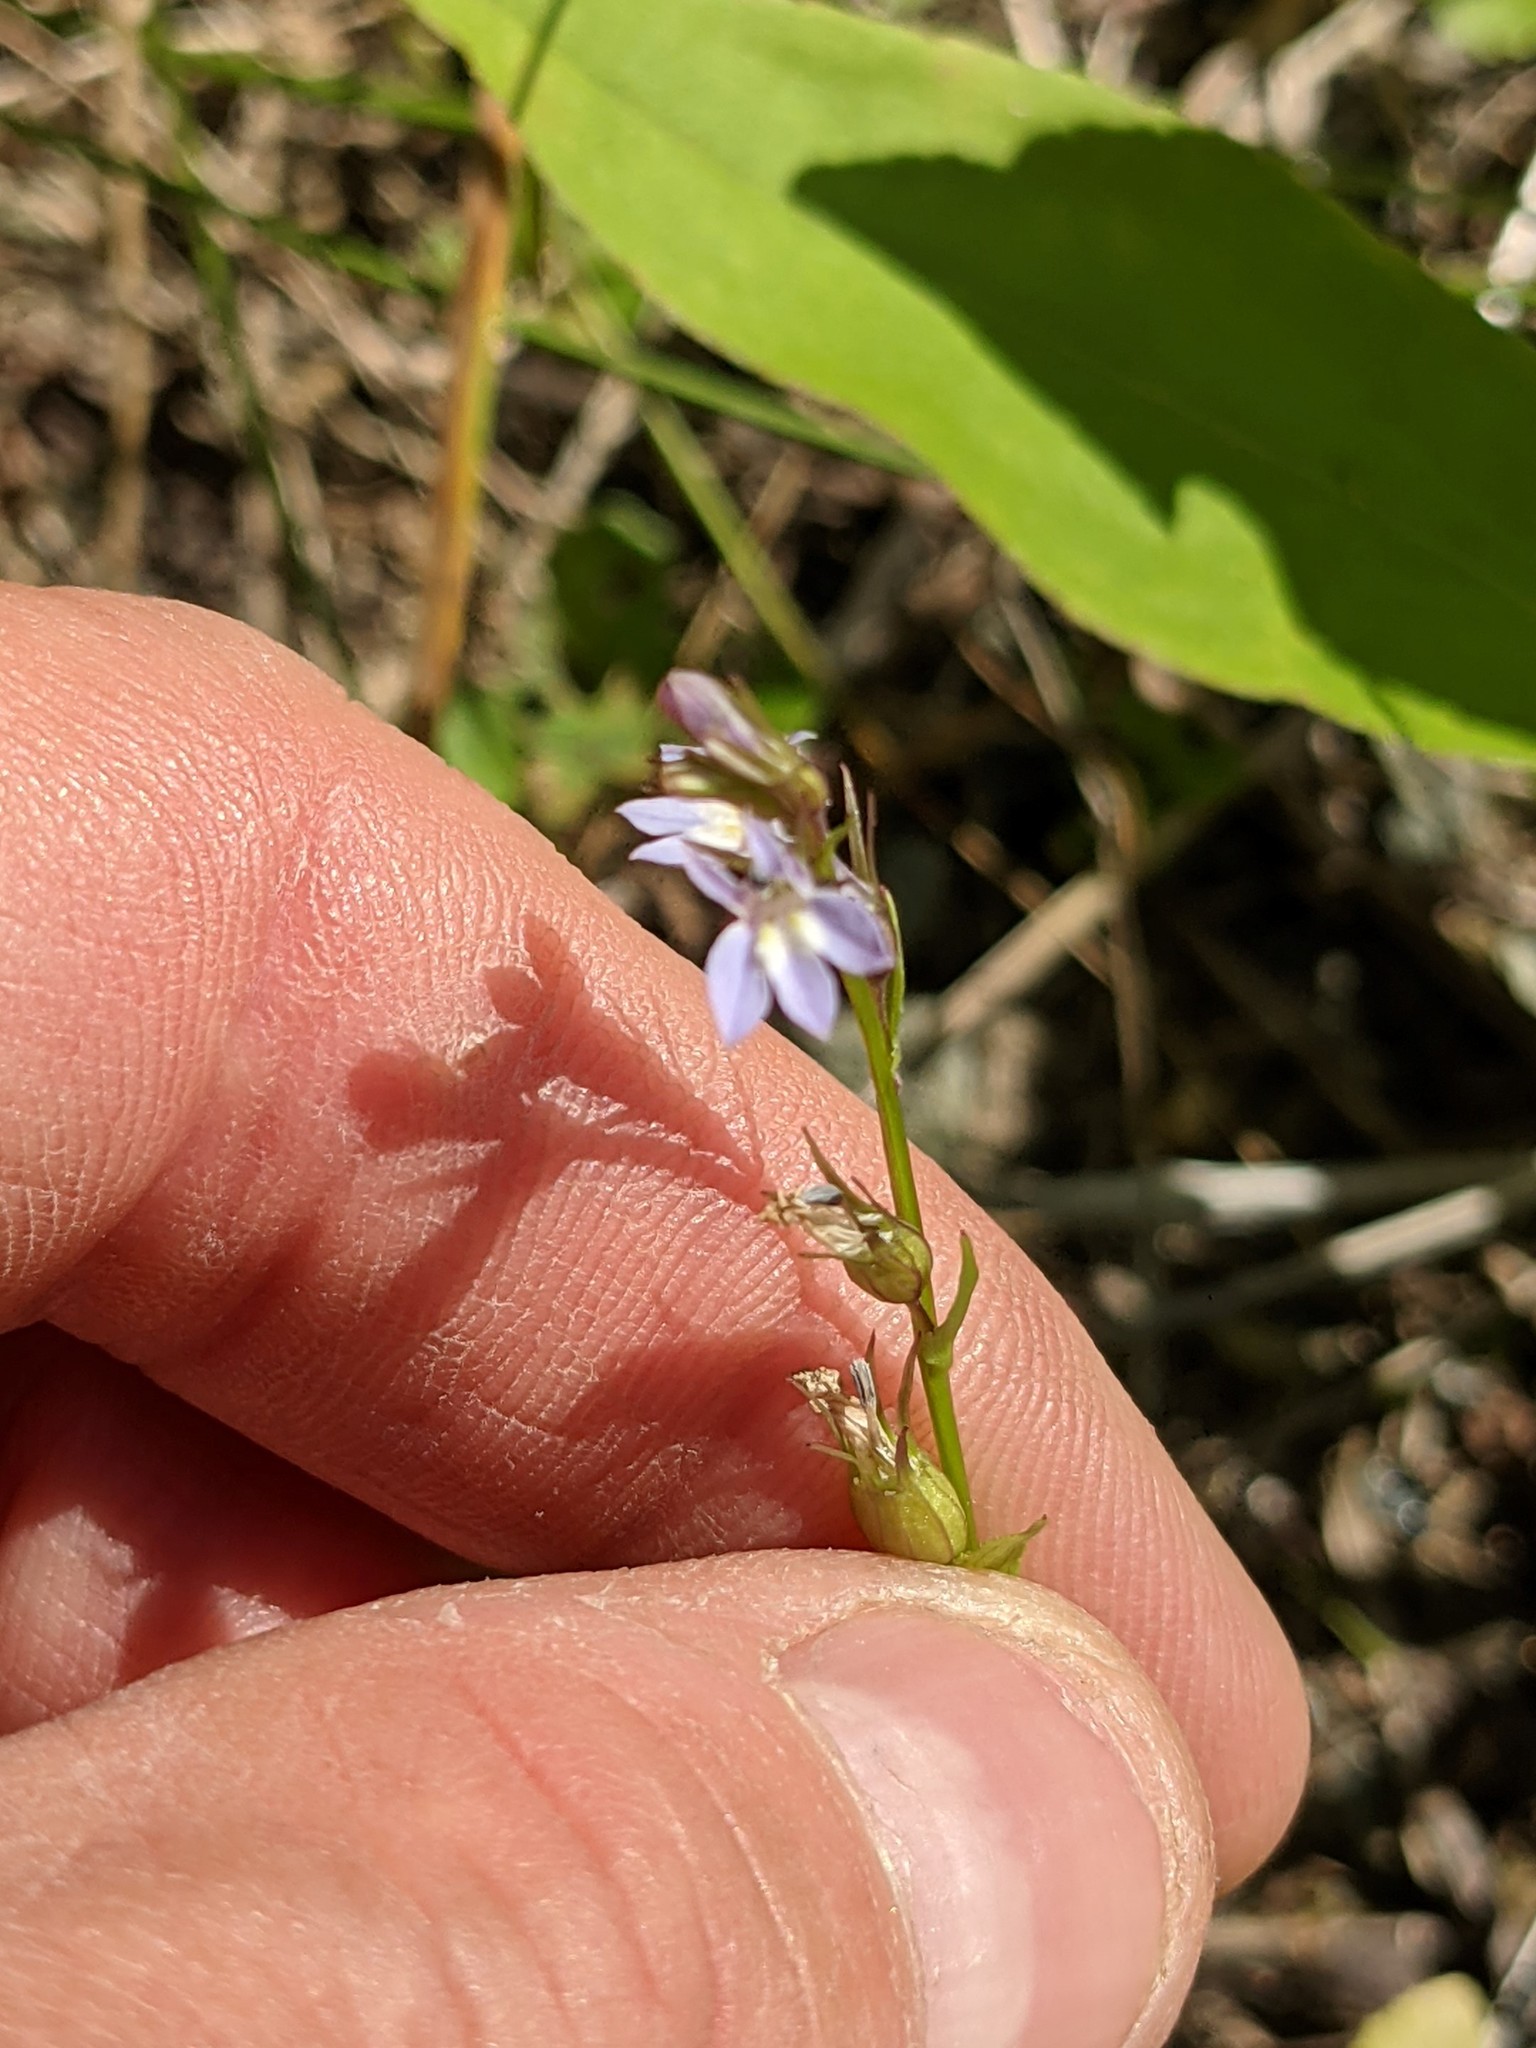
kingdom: Plantae
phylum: Tracheophyta
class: Magnoliopsida
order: Asterales
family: Campanulaceae
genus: Lobelia
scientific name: Lobelia inflata
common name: Indian tobacco
